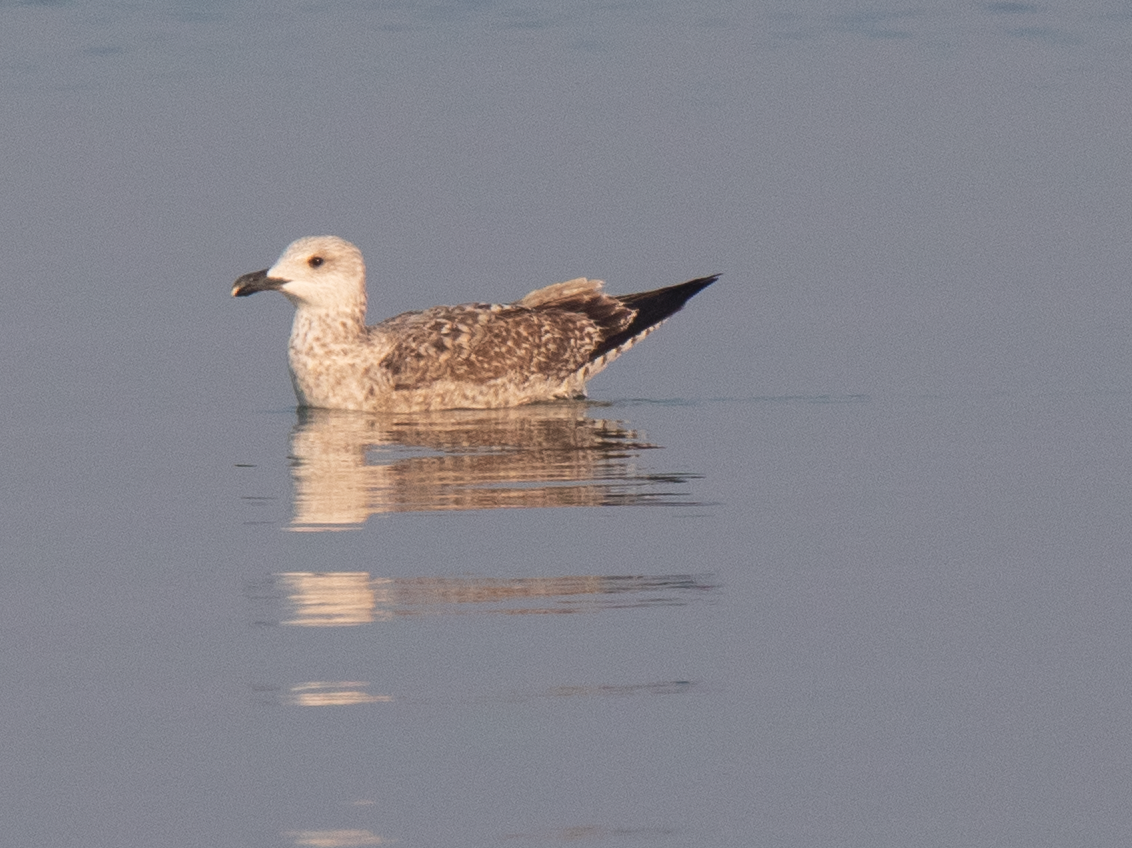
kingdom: Animalia
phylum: Chordata
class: Aves
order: Charadriiformes
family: Laridae
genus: Larus
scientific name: Larus michahellis
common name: Yellow-legged gull
